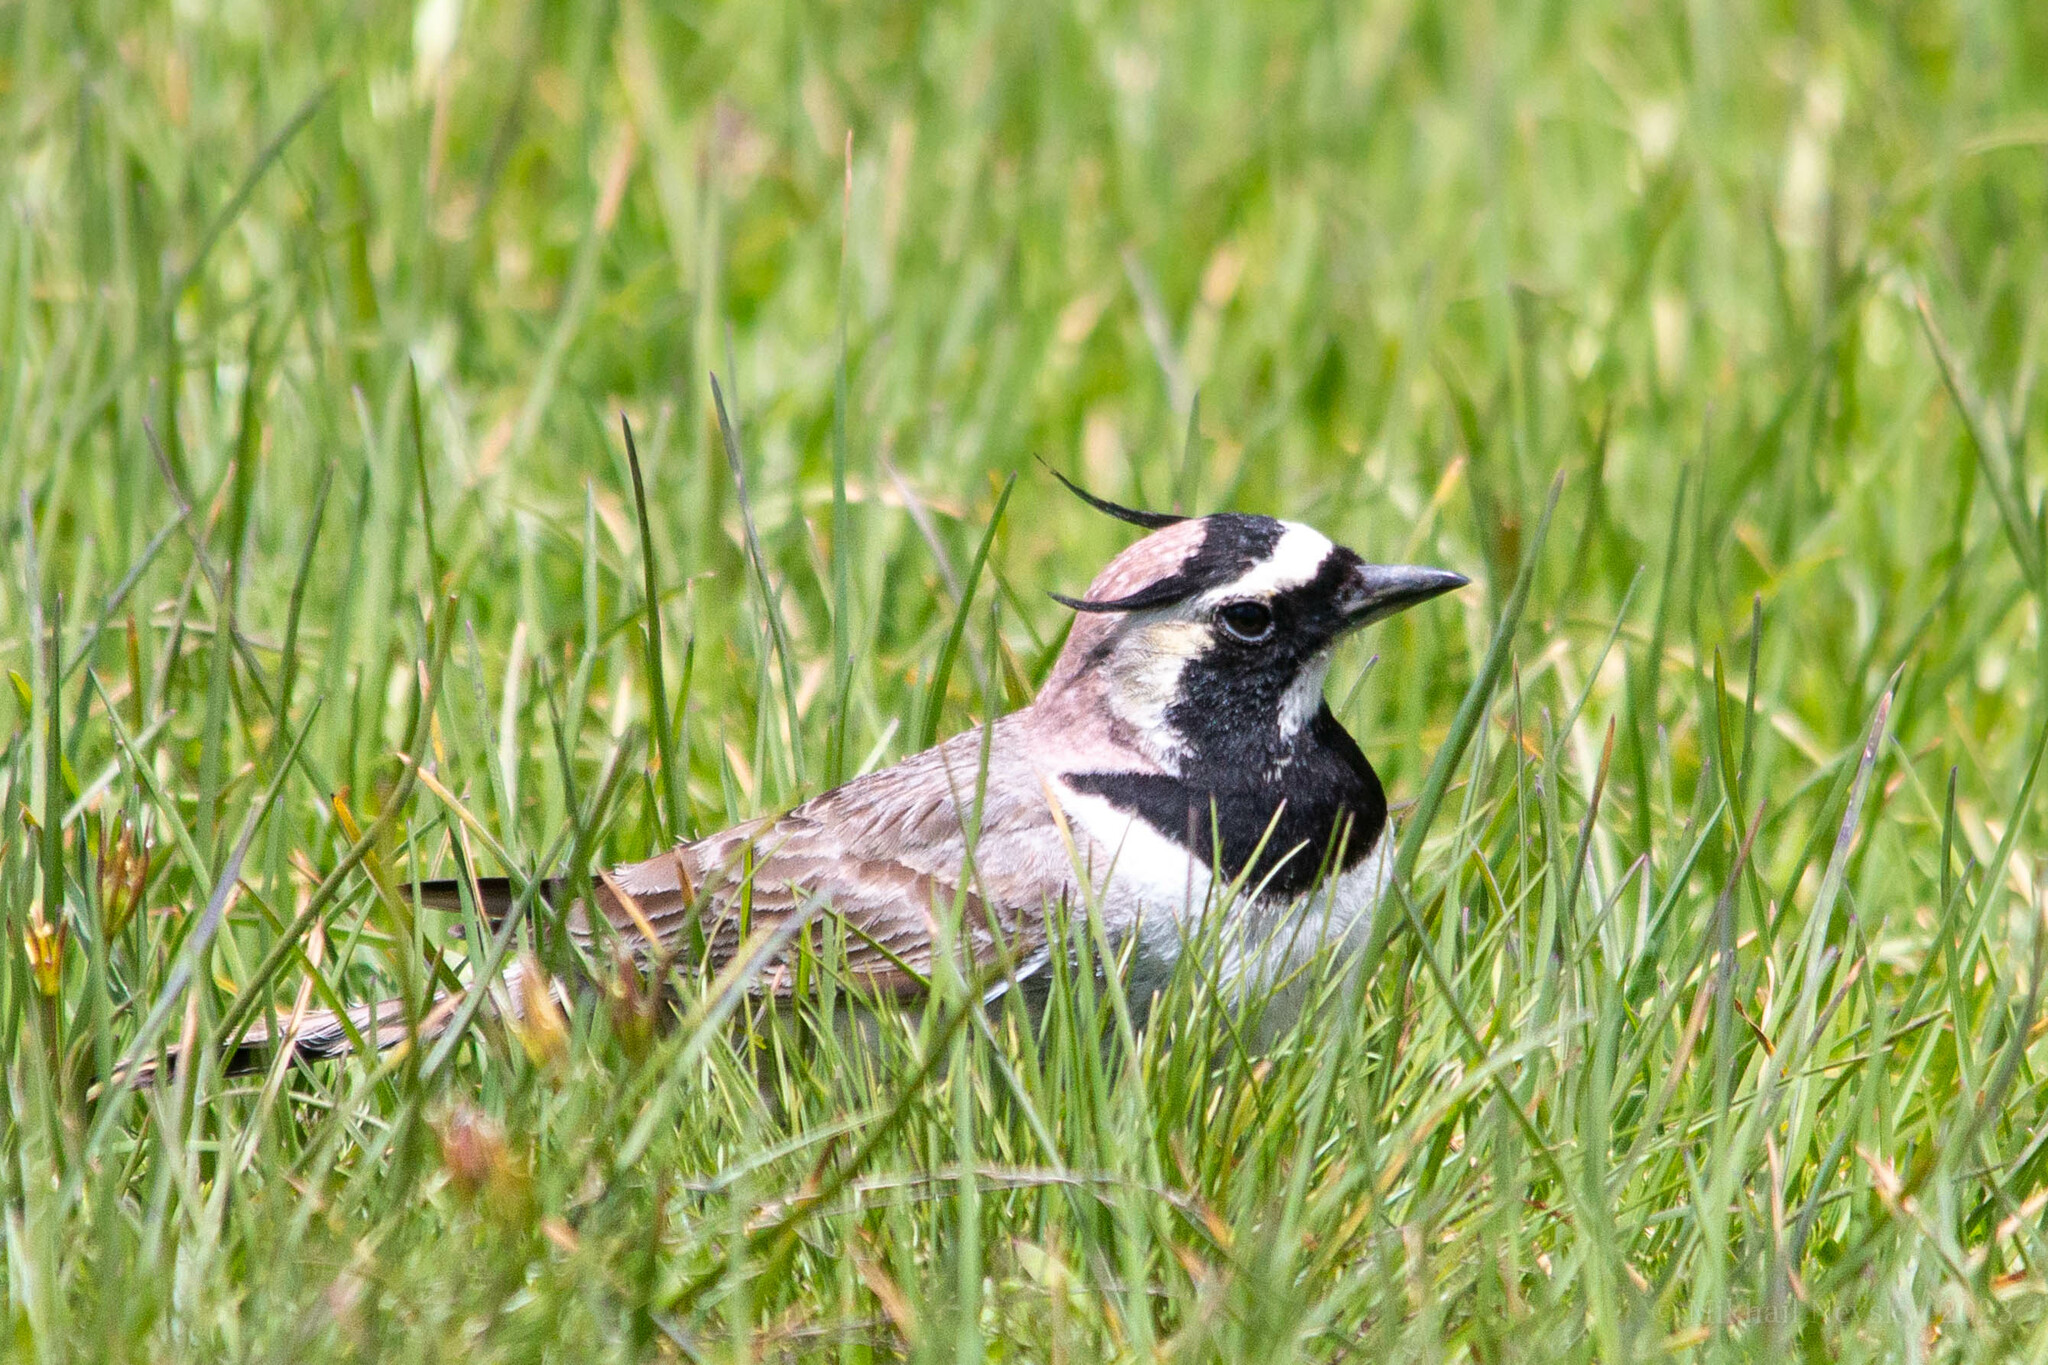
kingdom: Animalia
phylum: Chordata
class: Aves
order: Passeriformes
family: Alaudidae
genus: Eremophila
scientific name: Eremophila alpestris
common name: Horned lark
